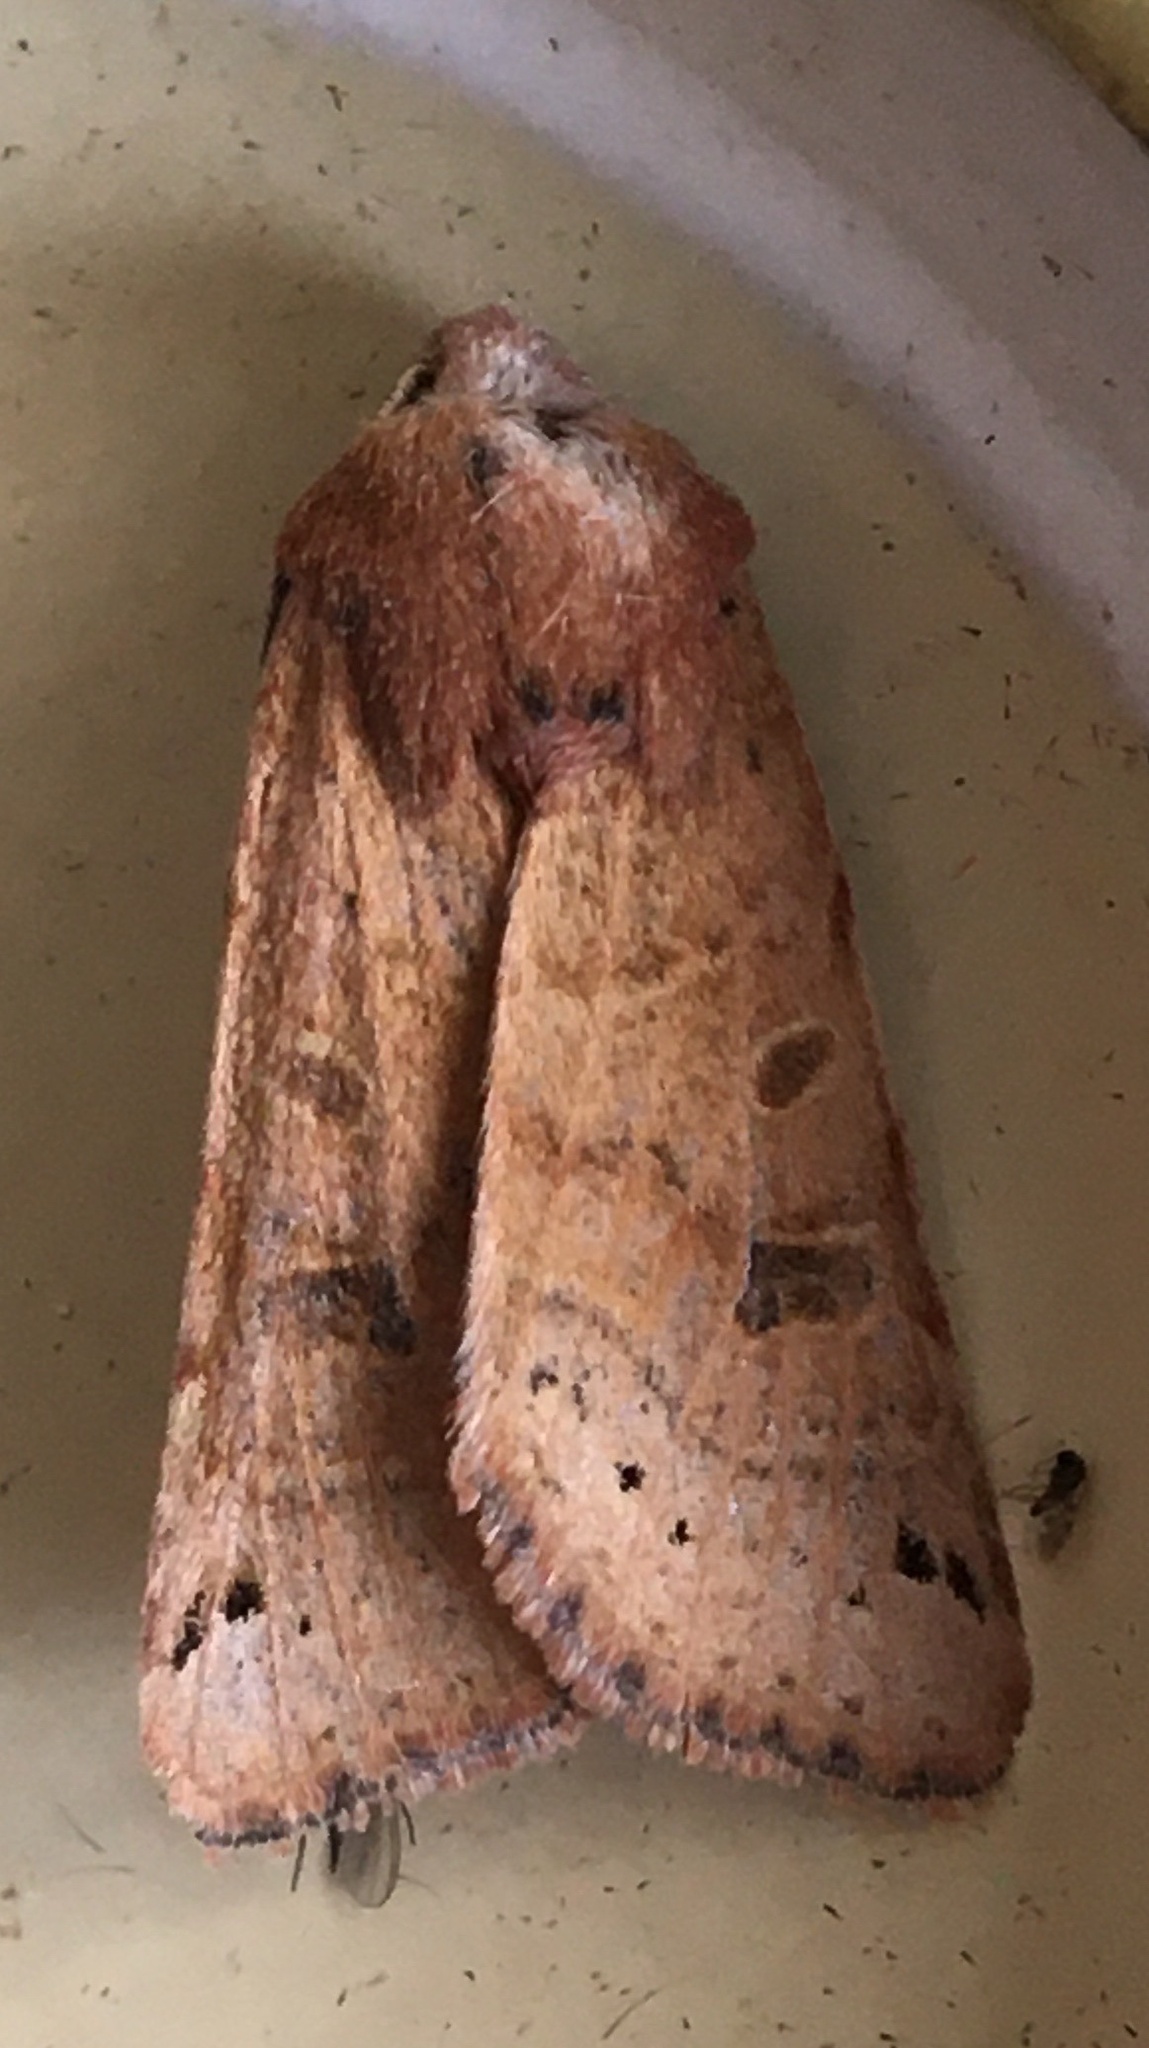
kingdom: Animalia
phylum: Arthropoda
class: Insecta
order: Lepidoptera
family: Noctuidae
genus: Agrochola
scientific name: Agrochola lunosa
